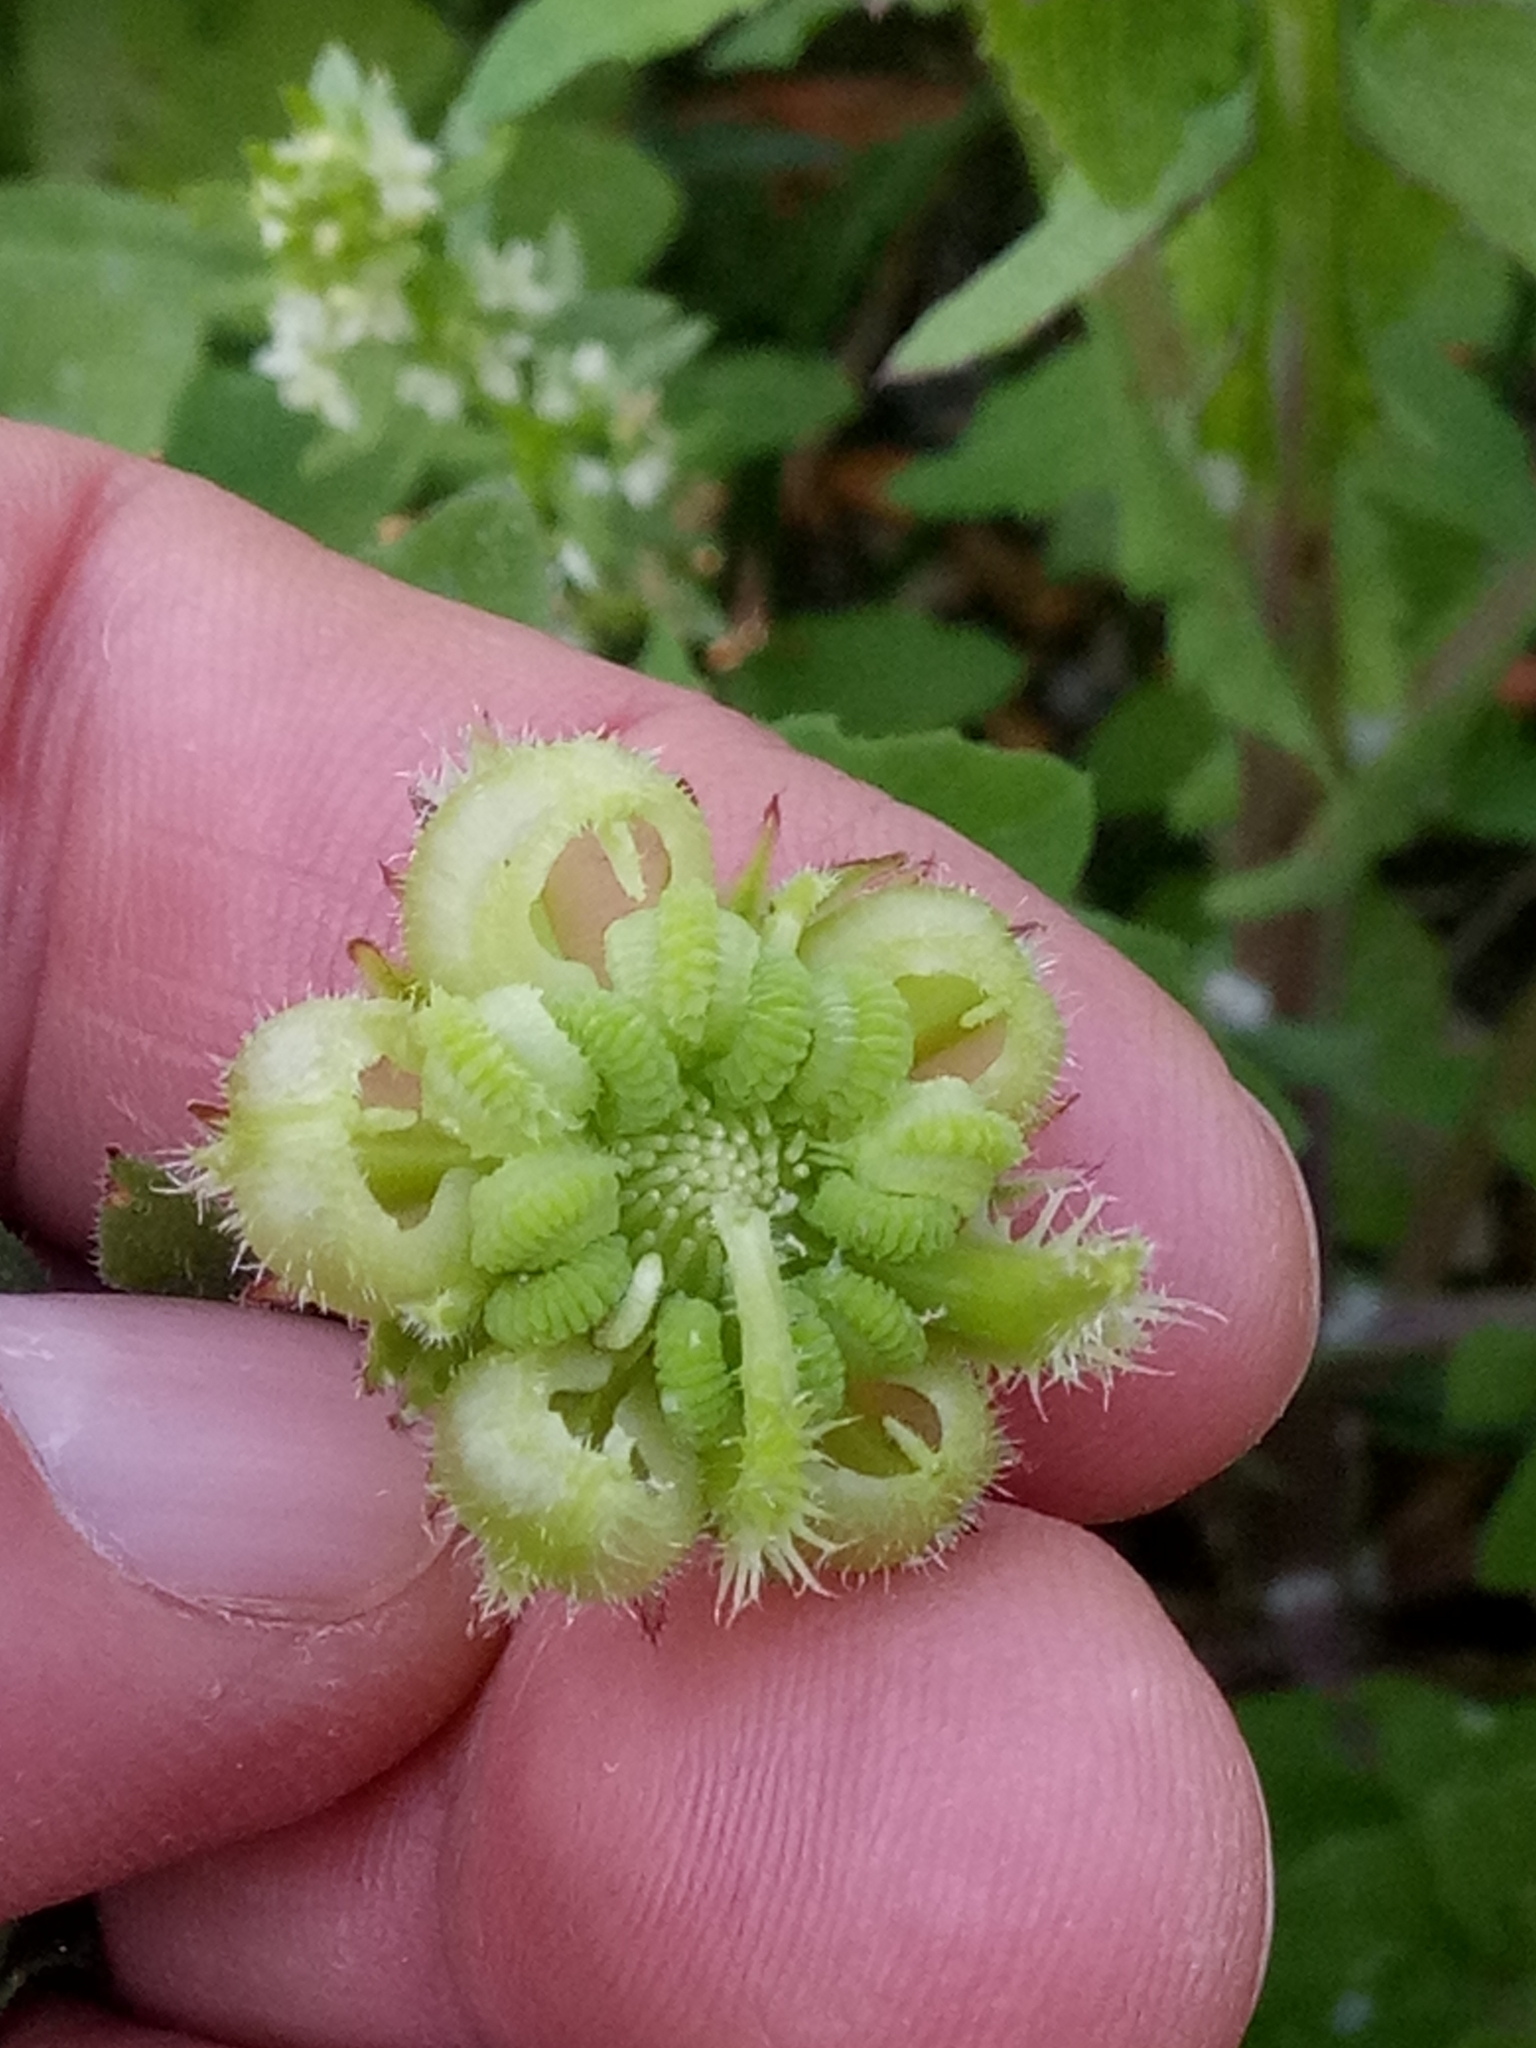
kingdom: Plantae
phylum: Tracheophyta
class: Magnoliopsida
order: Asterales
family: Asteraceae
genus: Calendula
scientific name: Calendula arvensis
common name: Field marigold
